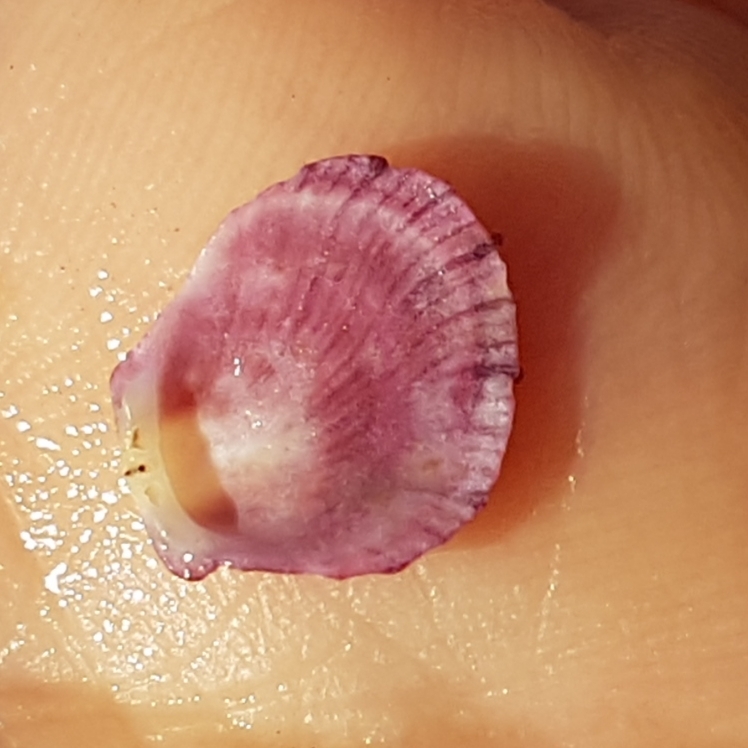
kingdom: Animalia
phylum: Mollusca
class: Bivalvia
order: Pectinida
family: Spondylidae
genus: Spondylus
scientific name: Spondylus gaederopus
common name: European thorny oyster
